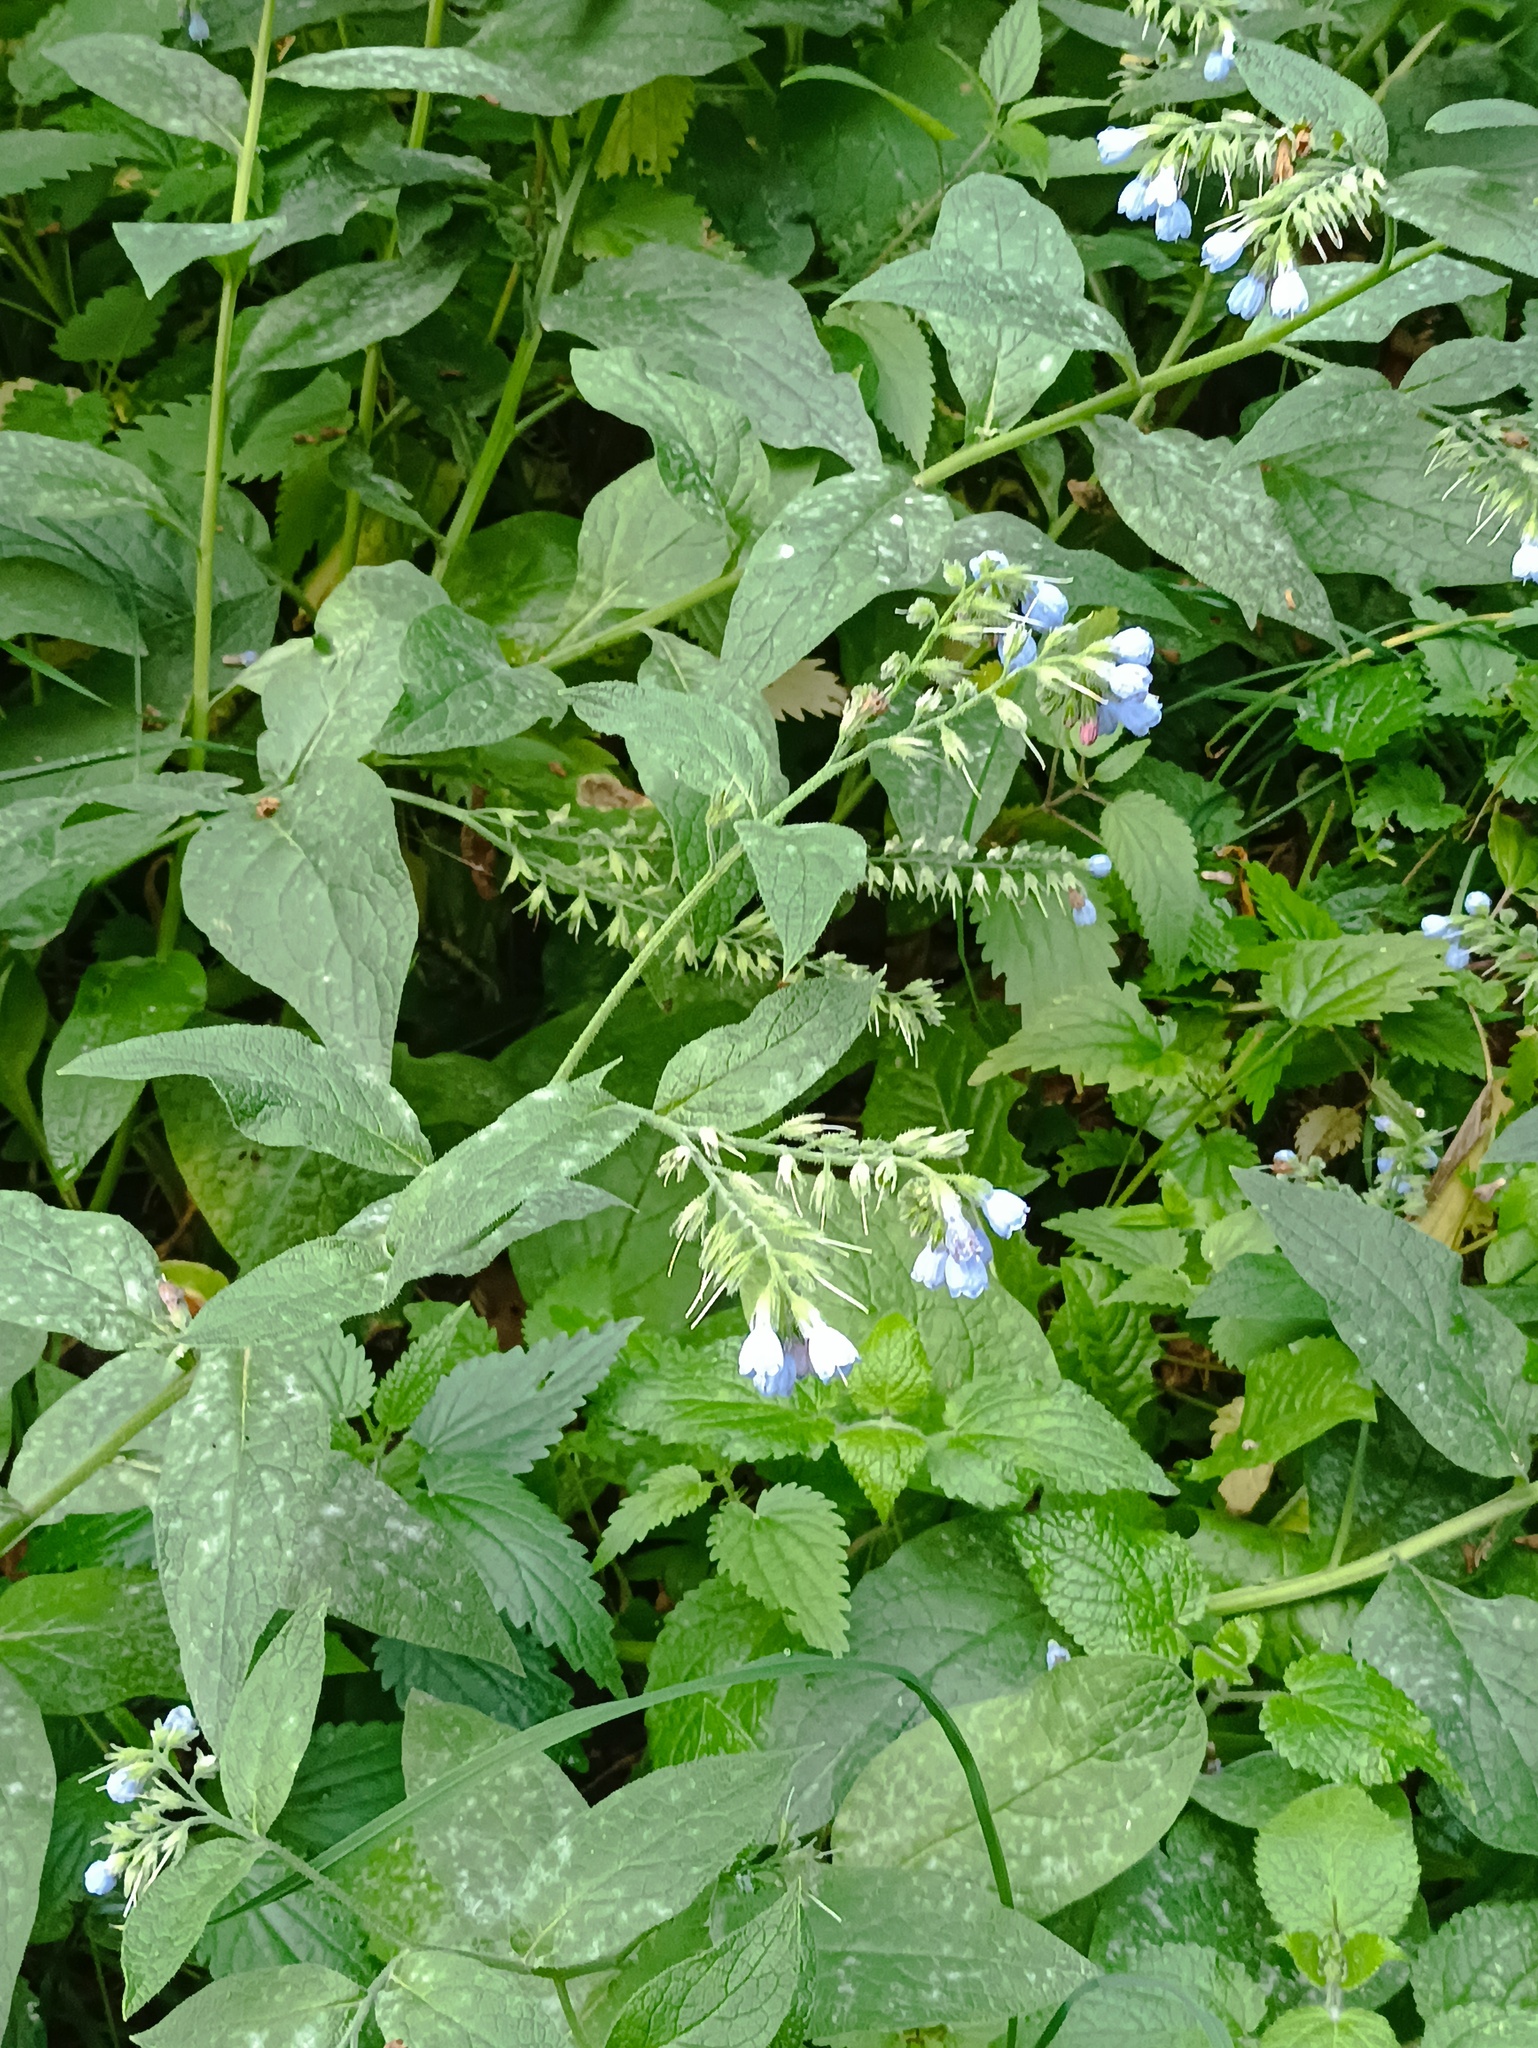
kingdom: Plantae
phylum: Tracheophyta
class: Magnoliopsida
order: Boraginales
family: Boraginaceae
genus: Symphytum
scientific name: Symphytum caucasicum
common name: Caucasian comfrey
